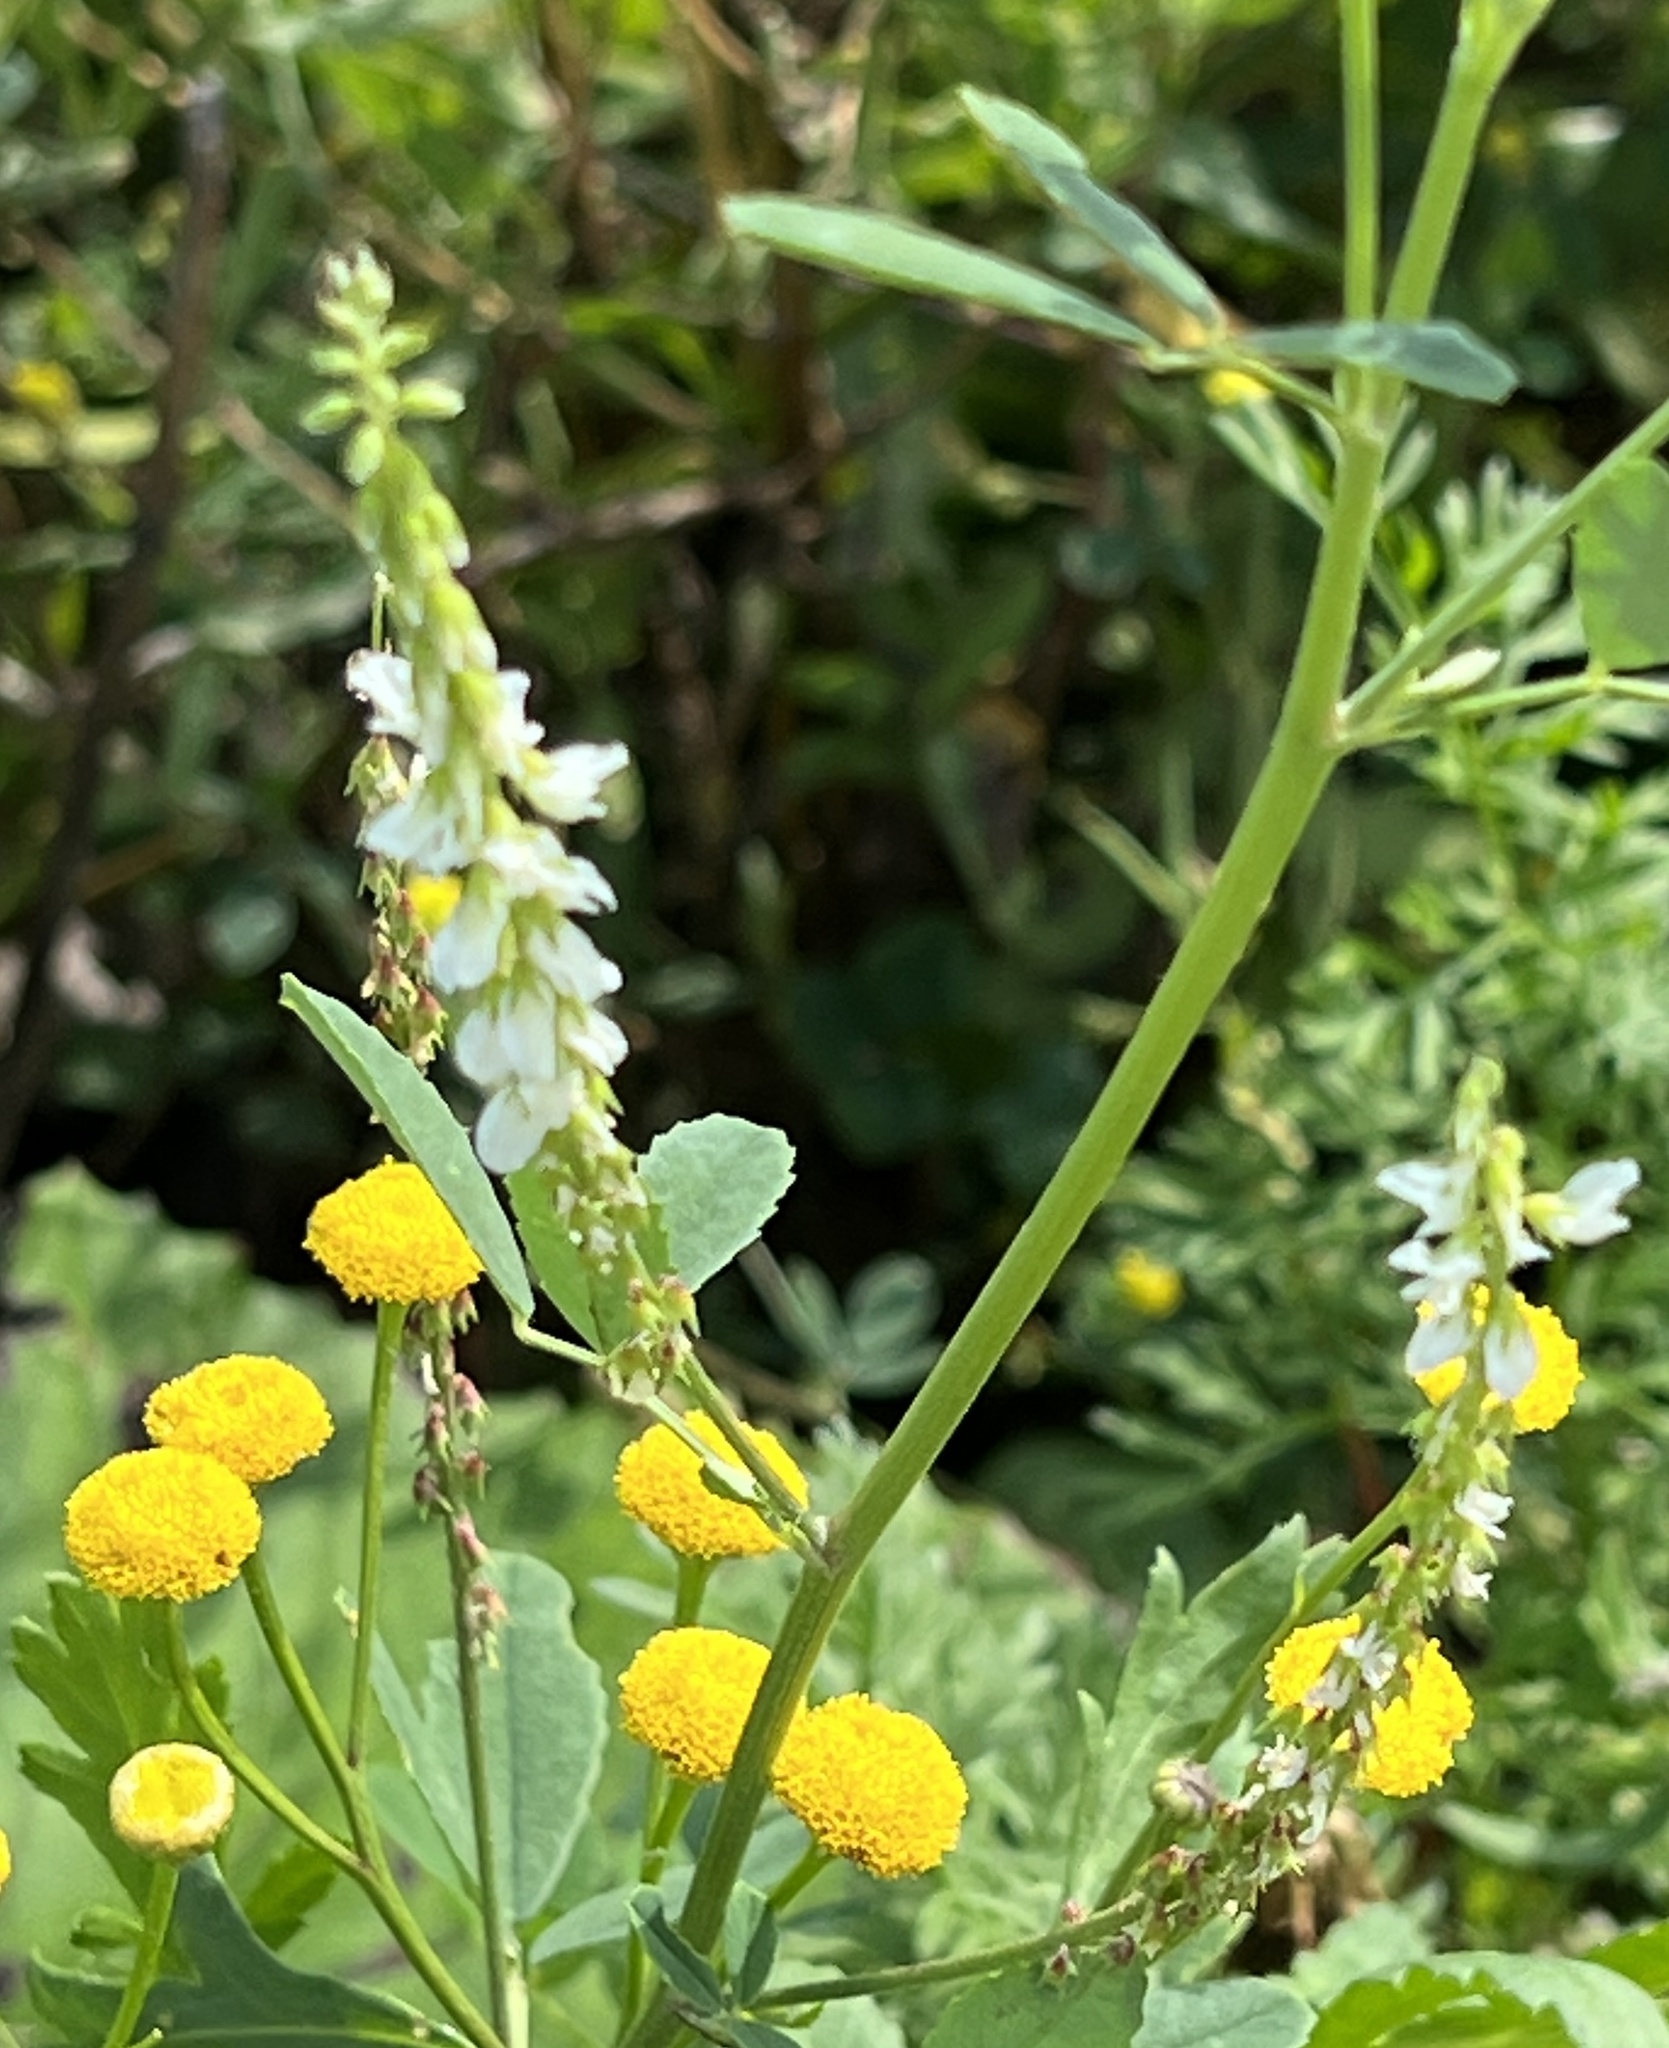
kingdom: Plantae
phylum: Tracheophyta
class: Magnoliopsida
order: Fabales
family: Fabaceae
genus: Melilotus
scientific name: Melilotus albus
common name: White melilot
